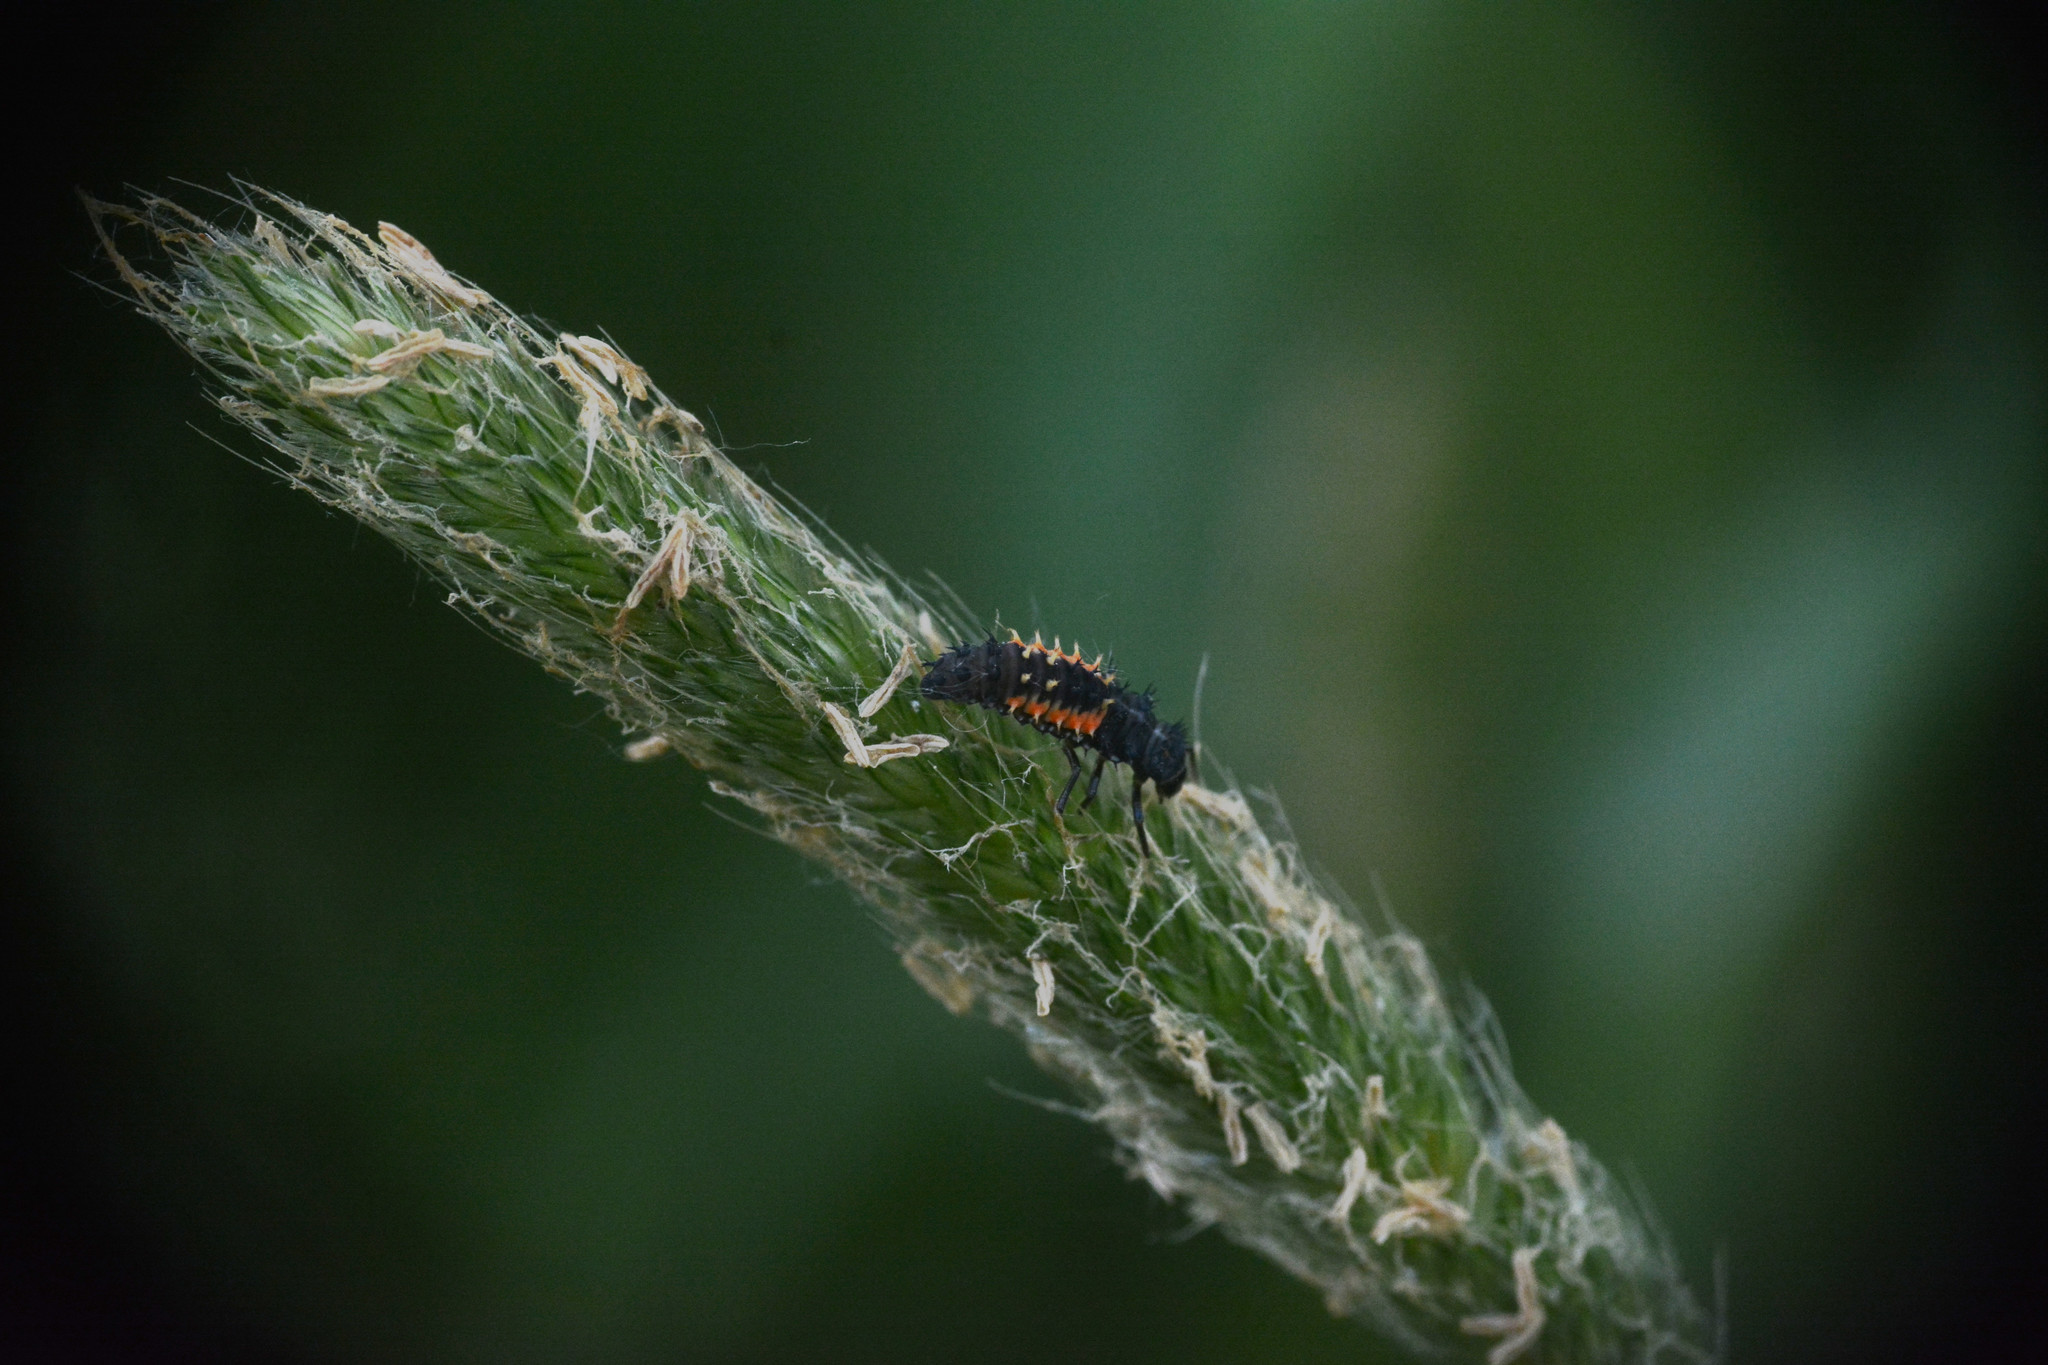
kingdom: Animalia
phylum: Arthropoda
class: Insecta
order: Coleoptera
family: Coccinellidae
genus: Harmonia
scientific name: Harmonia axyridis
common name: Harlequin ladybird
